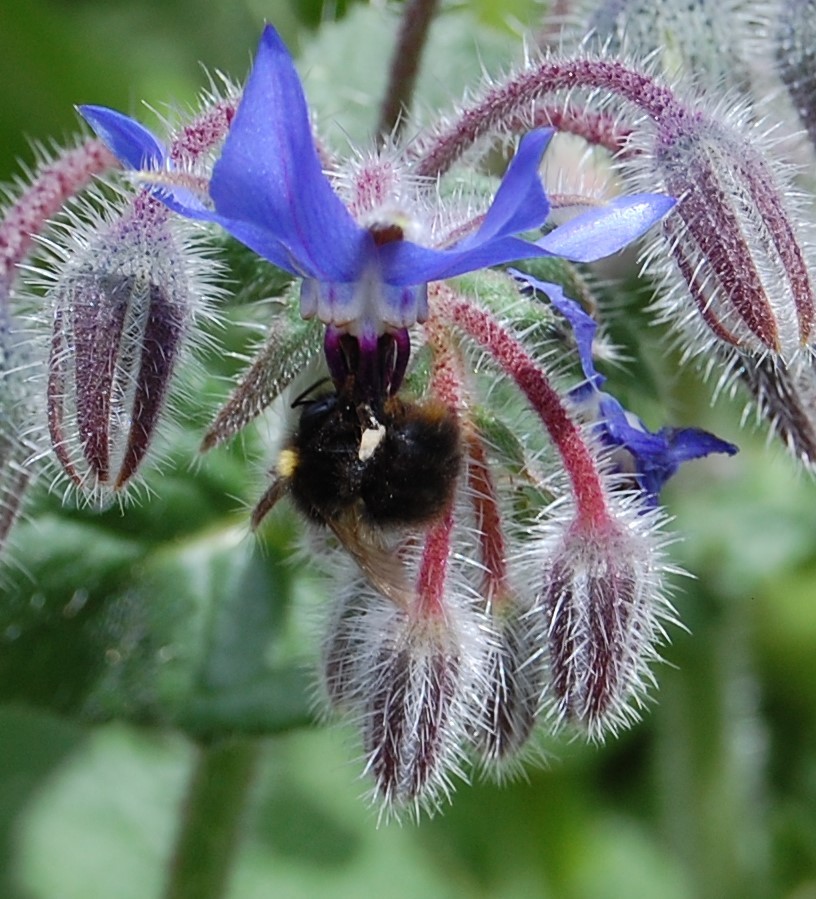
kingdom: Animalia
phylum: Arthropoda
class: Insecta
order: Hymenoptera
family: Apidae
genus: Bombus
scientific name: Bombus pratorum
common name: Early humble-bee
